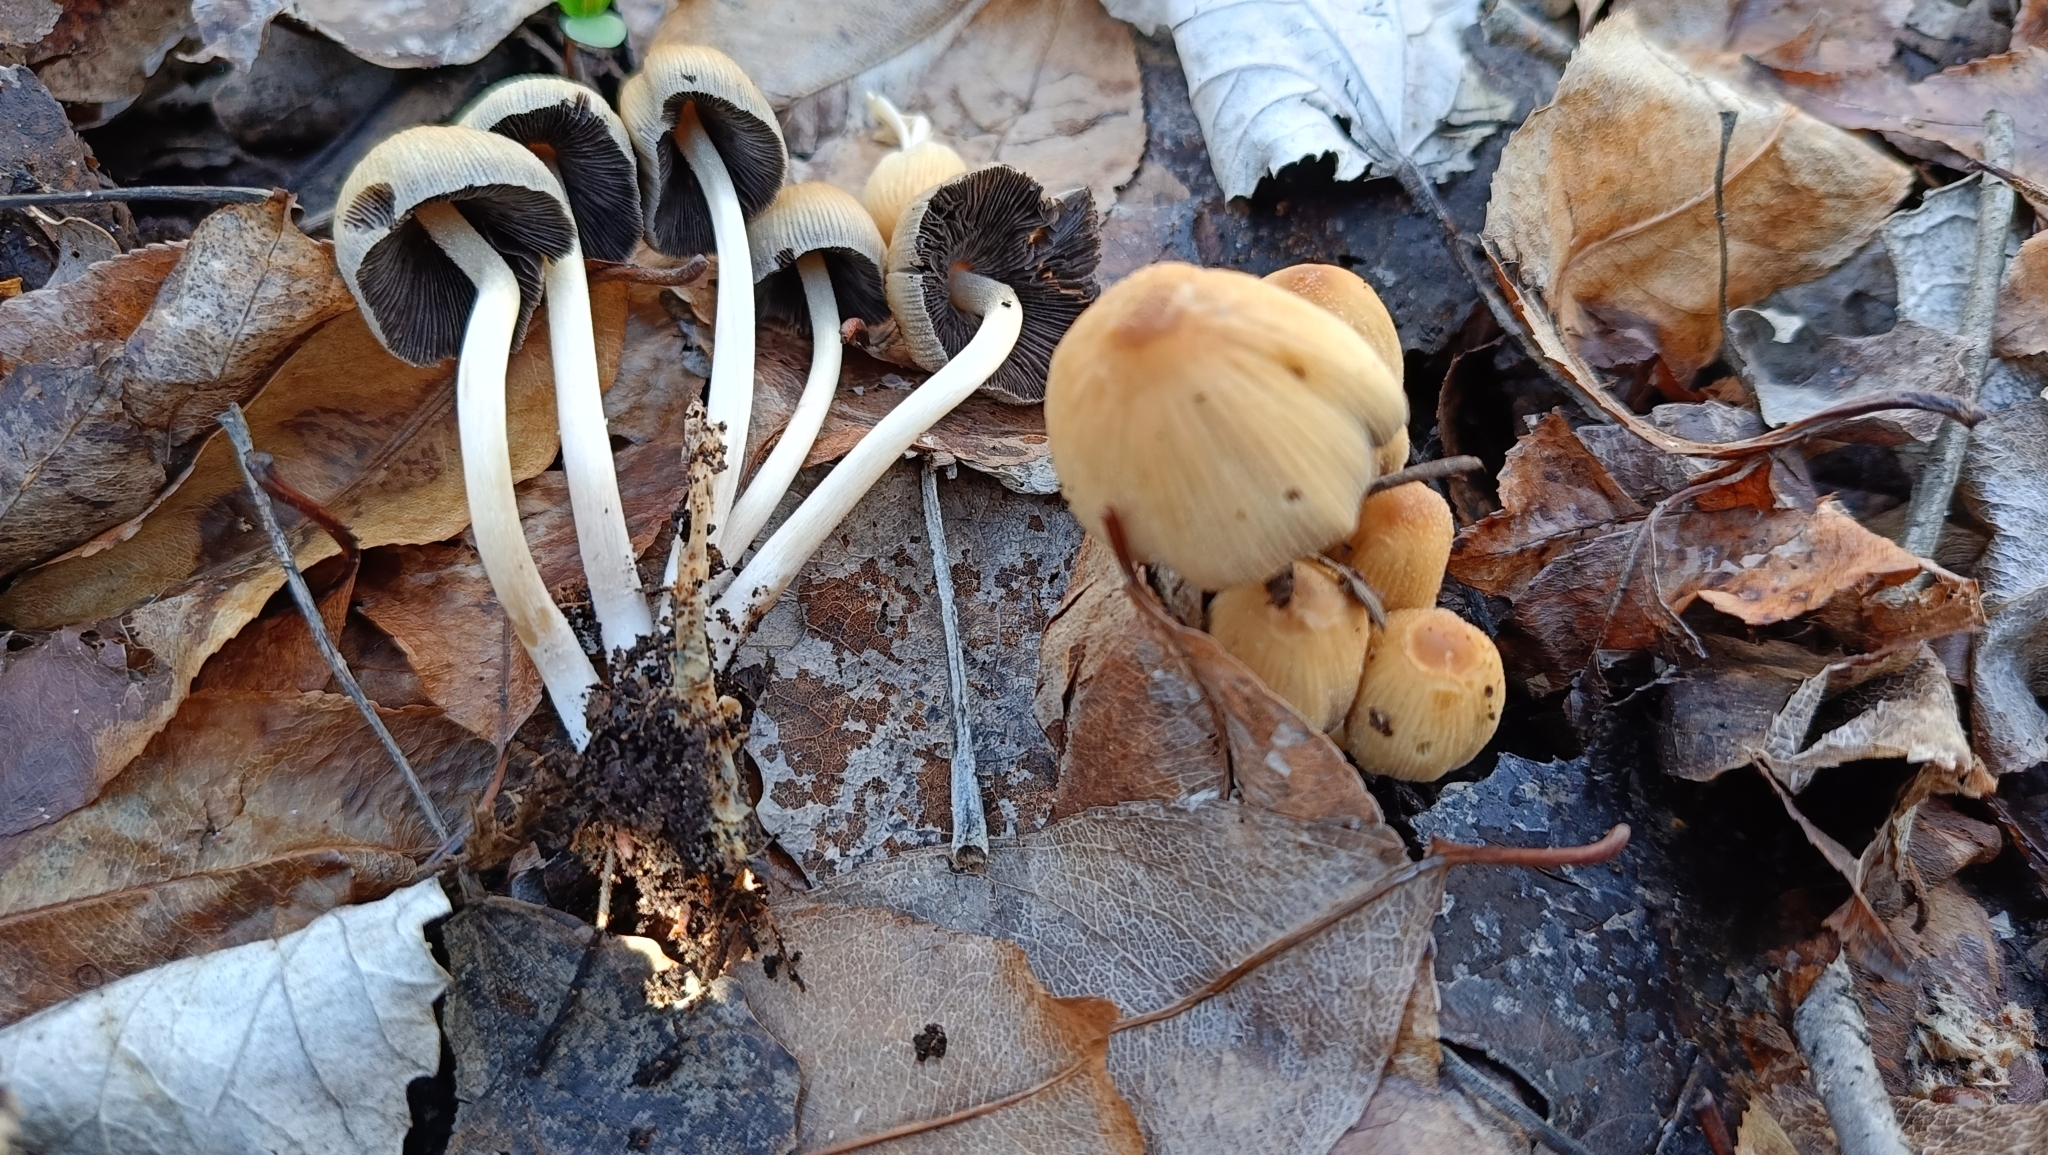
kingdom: Fungi
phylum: Basidiomycota
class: Agaricomycetes
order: Agaricales
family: Psathyrellaceae
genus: Coprinellus
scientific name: Coprinellus micaceus
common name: Glistening ink-cap
